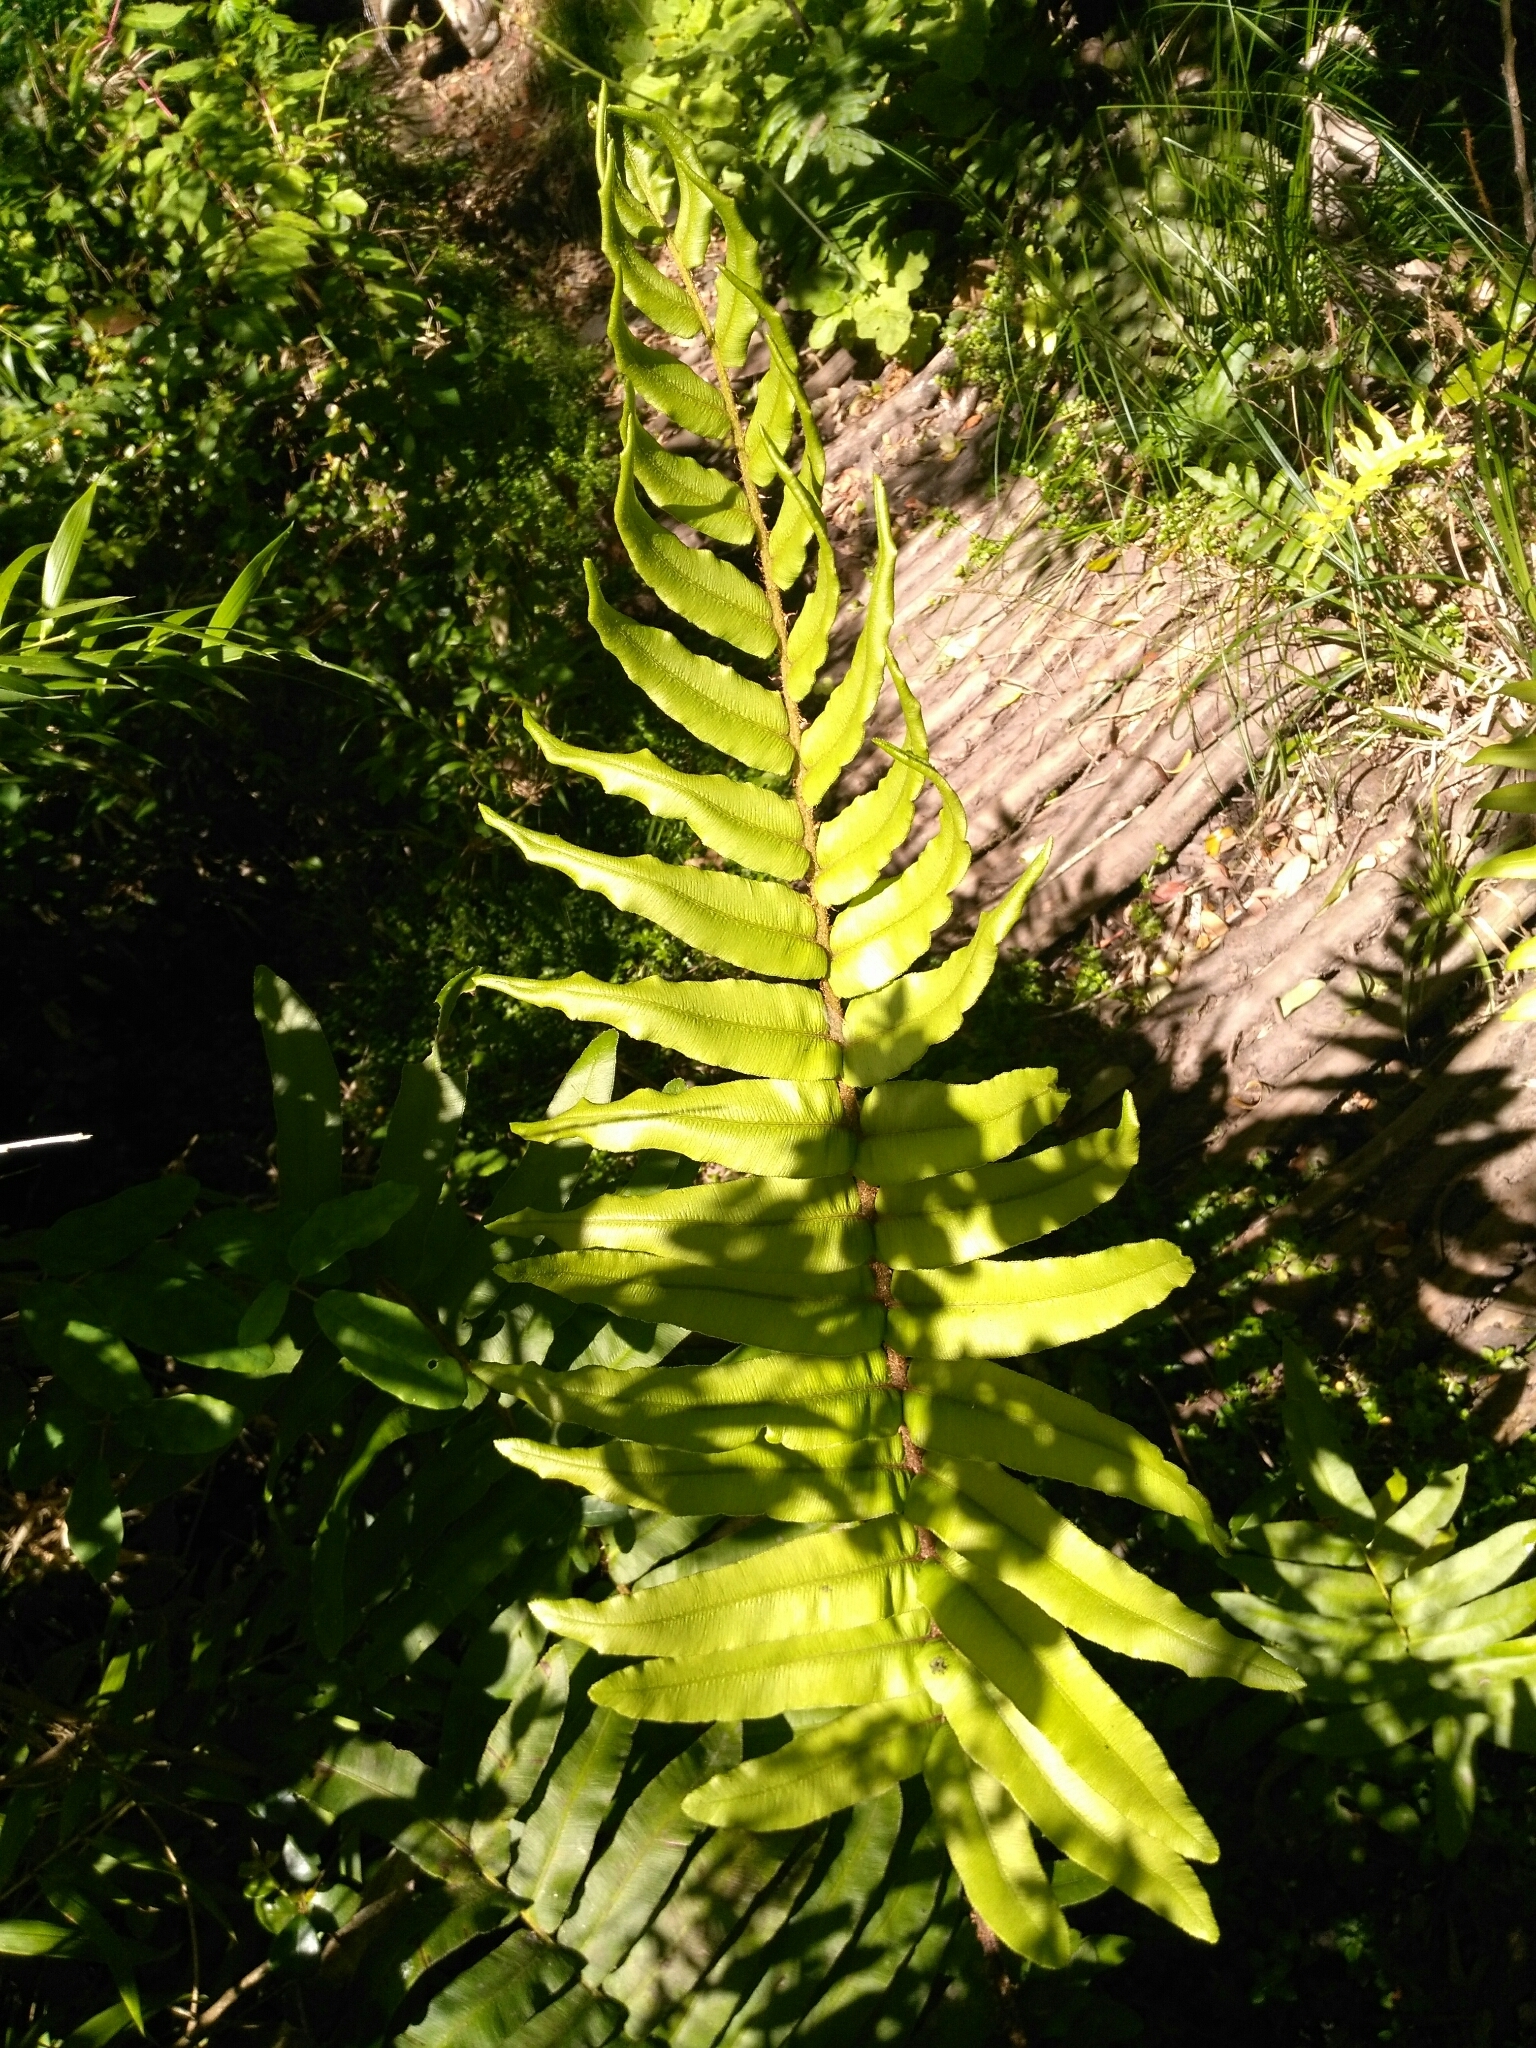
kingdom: Plantae
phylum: Tracheophyta
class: Polypodiopsida
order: Polypodiales
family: Blechnaceae
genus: Parablechnum
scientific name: Parablechnum chilense
